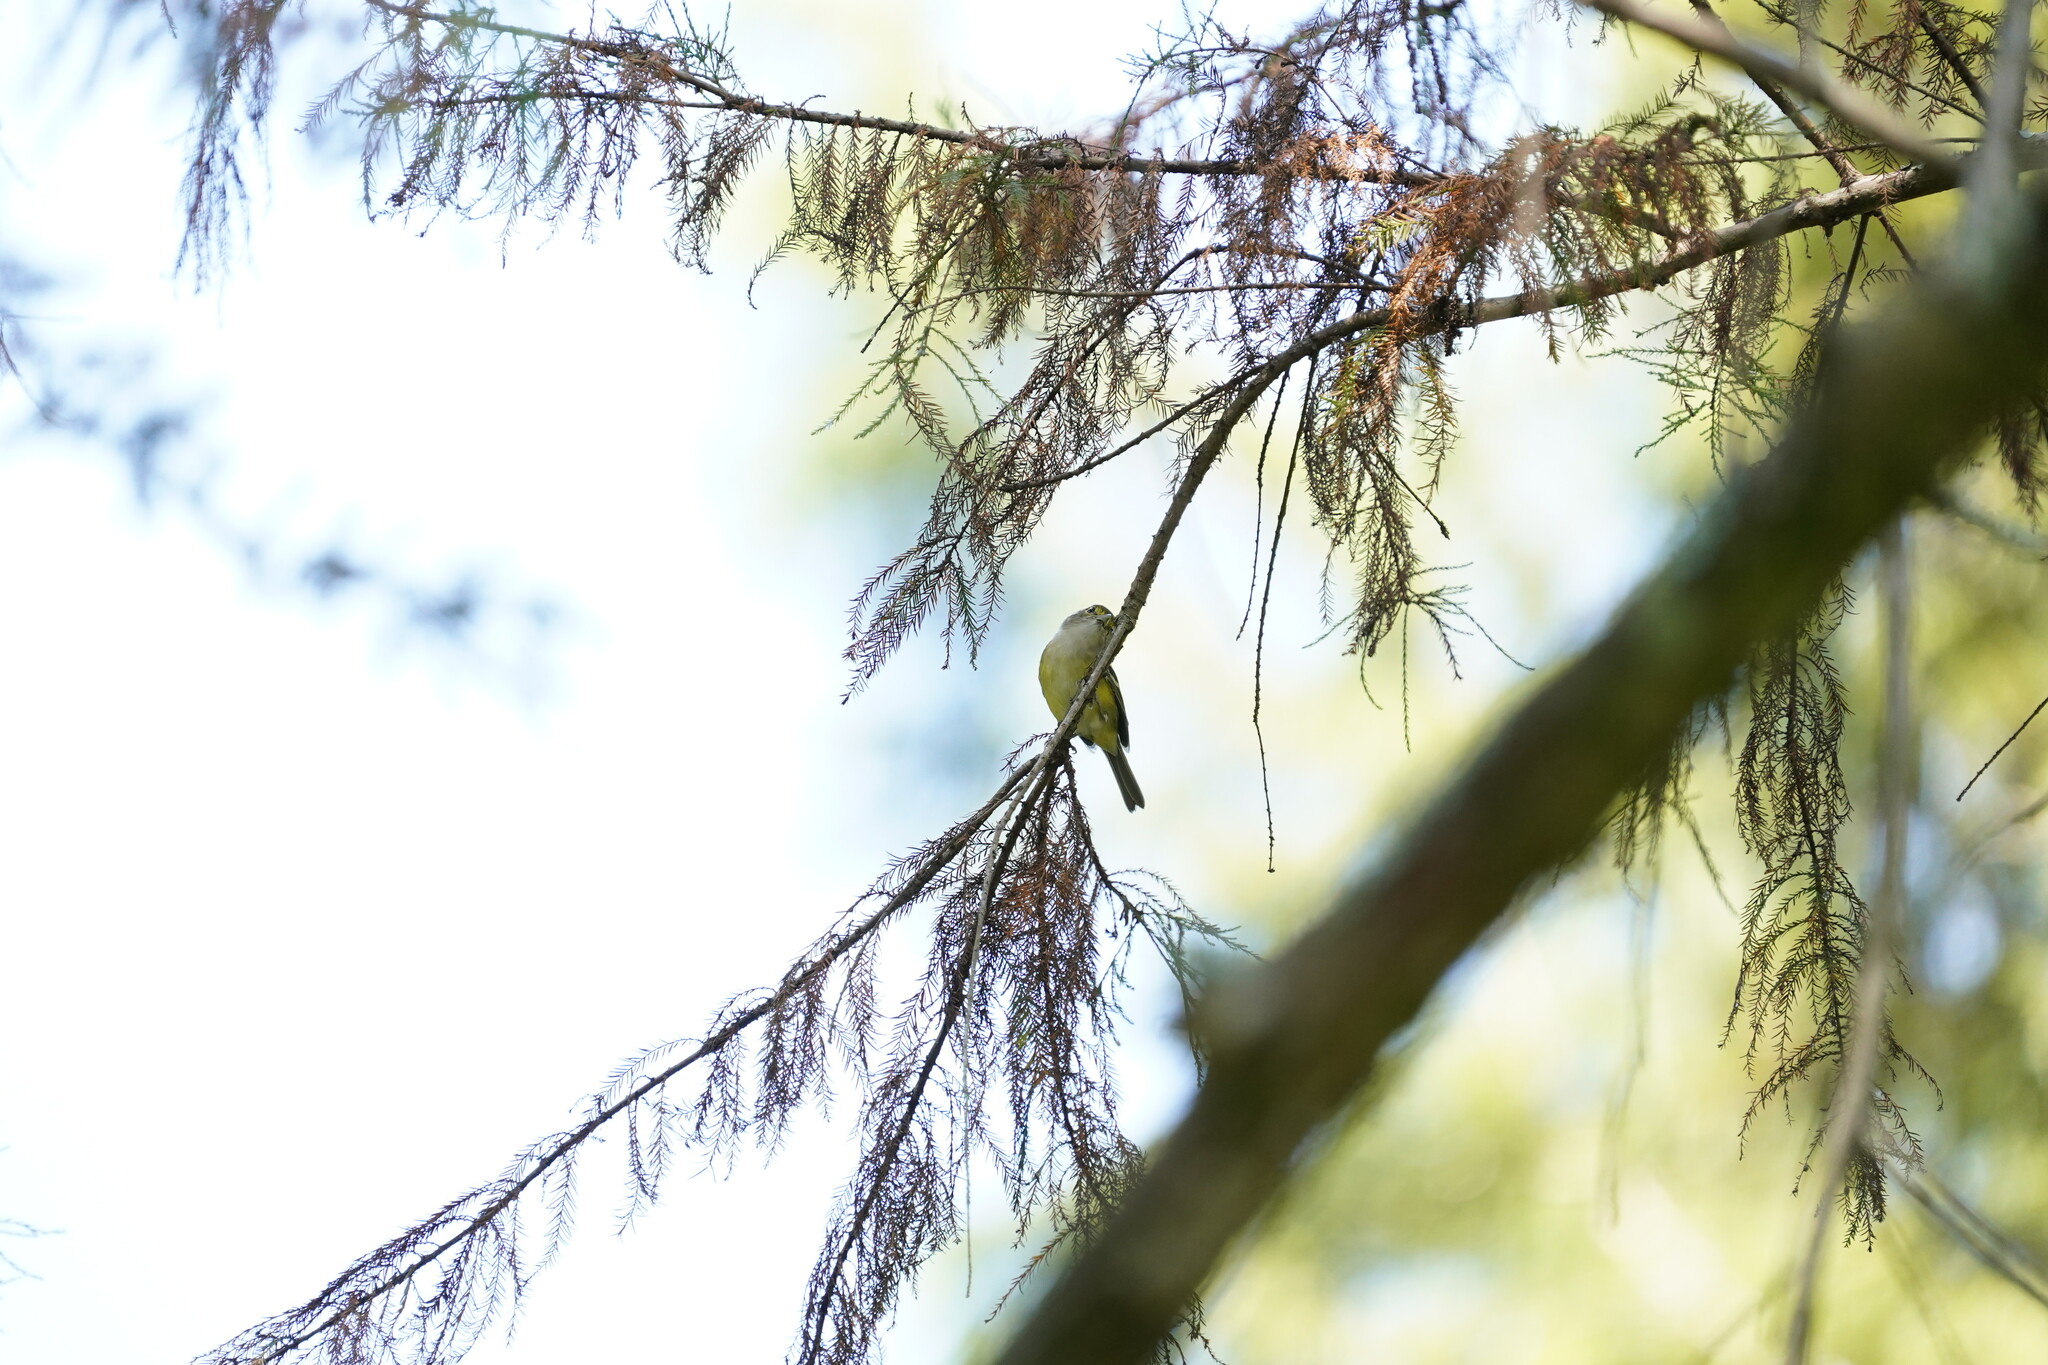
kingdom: Animalia
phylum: Chordata
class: Aves
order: Passeriformes
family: Vireonidae
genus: Vireo
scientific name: Vireo griseus
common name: White-eyed vireo
